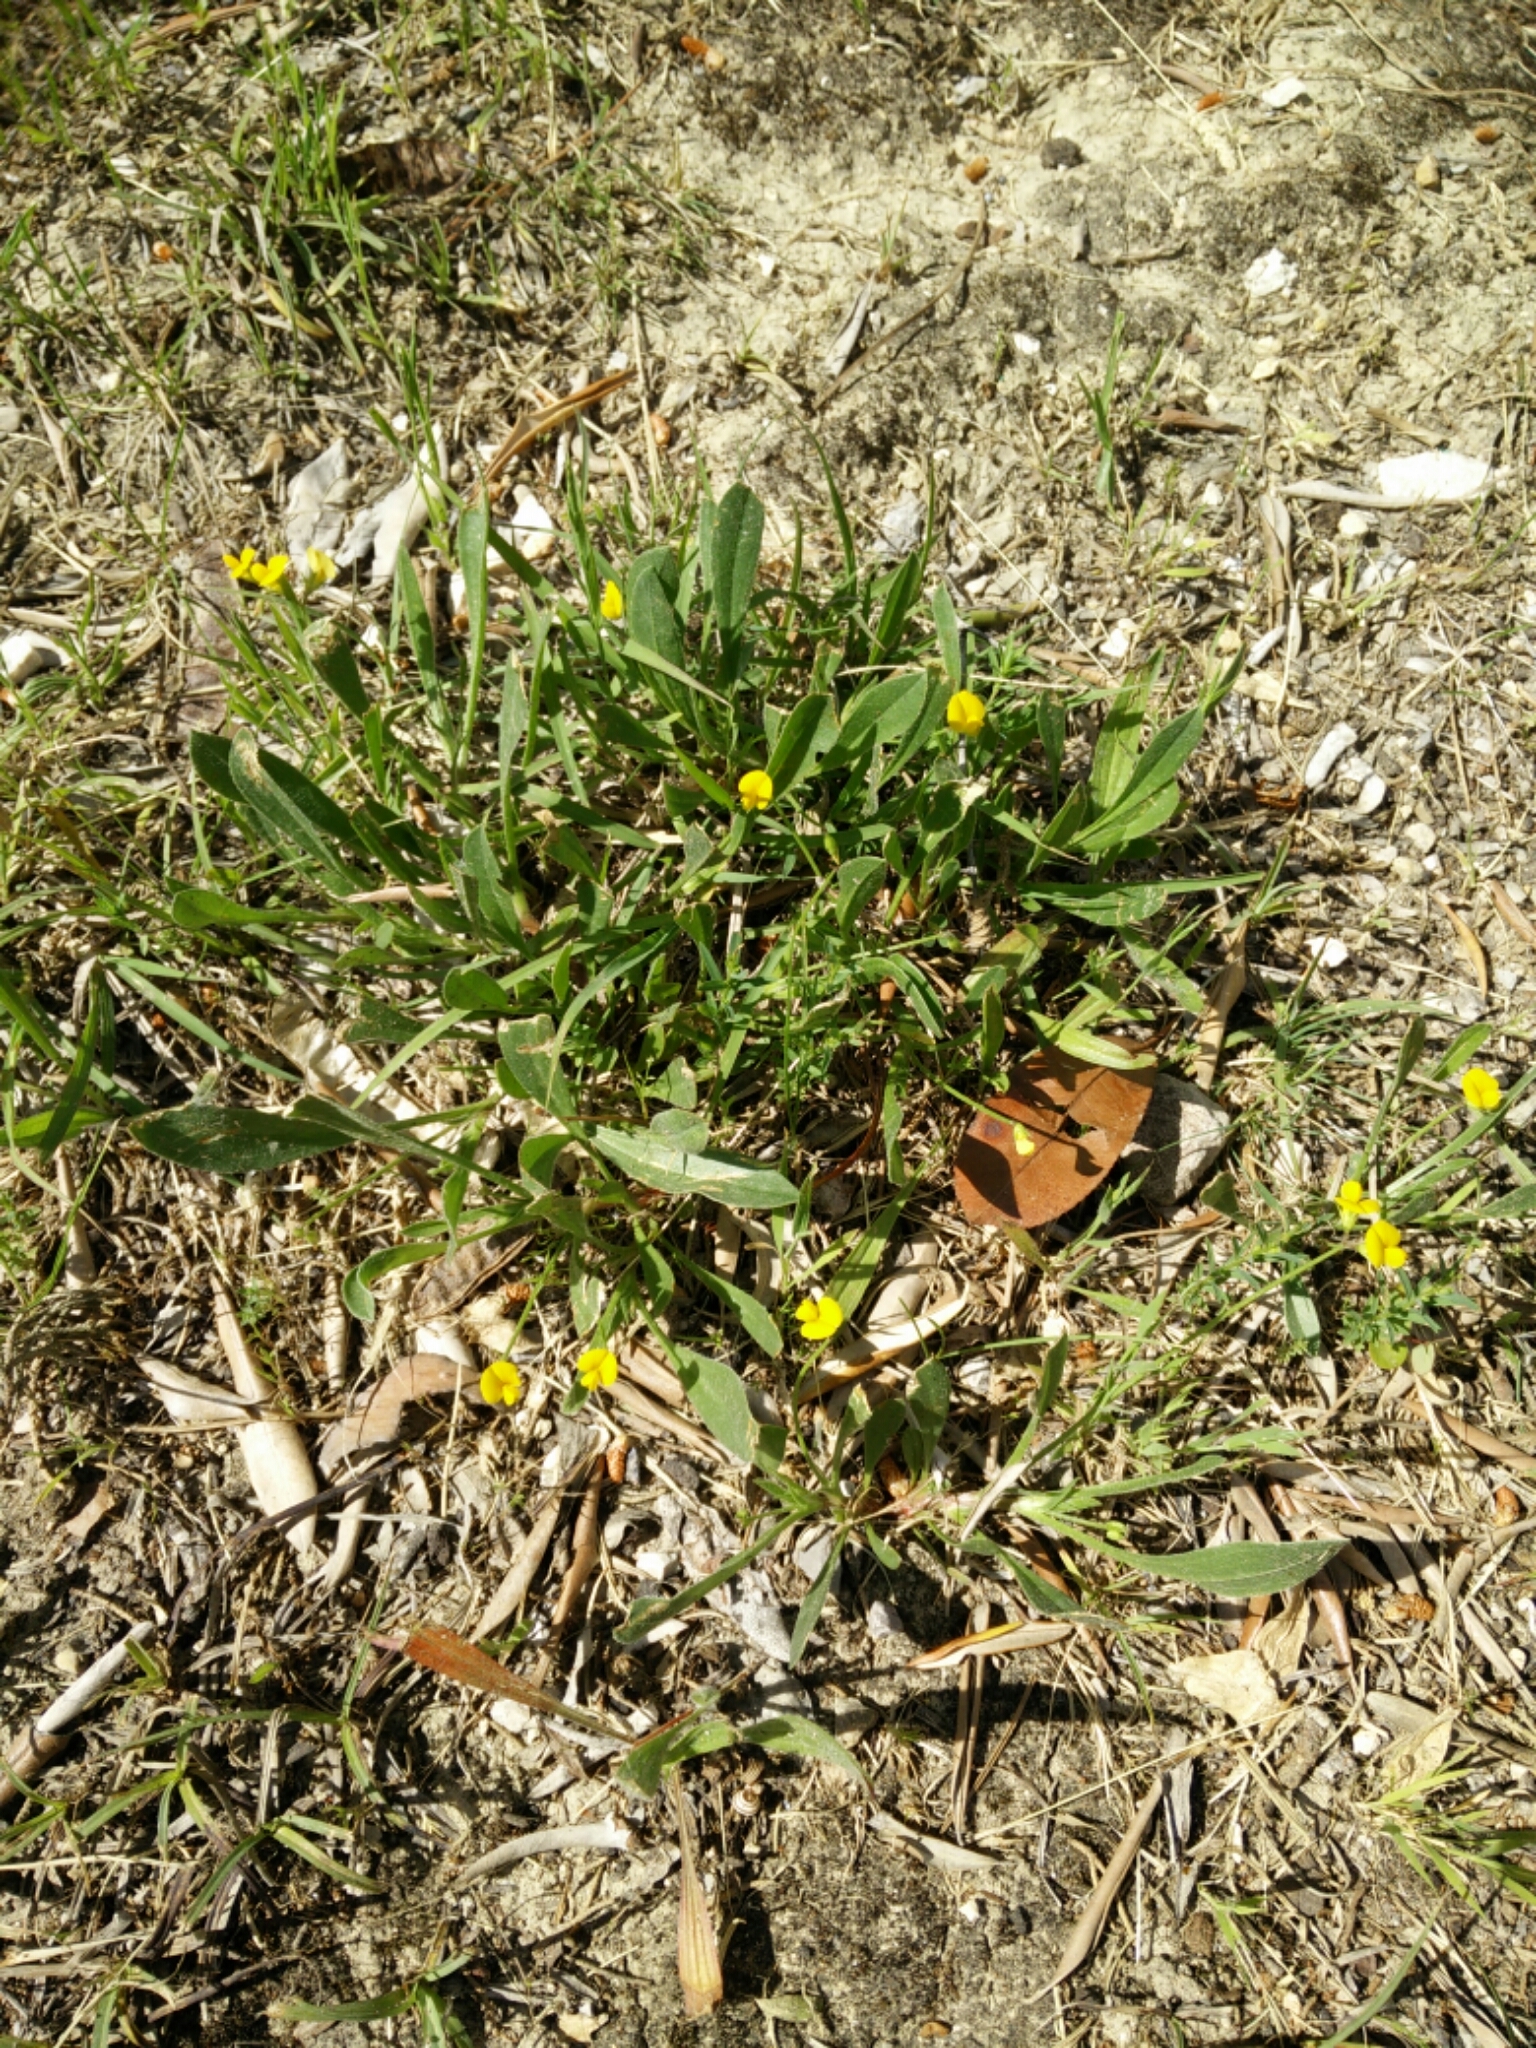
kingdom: Plantae
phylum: Tracheophyta
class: Magnoliopsida
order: Fabales
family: Fabaceae
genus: Scorpiurus
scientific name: Scorpiurus muricatus
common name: Caterpillar-plant
